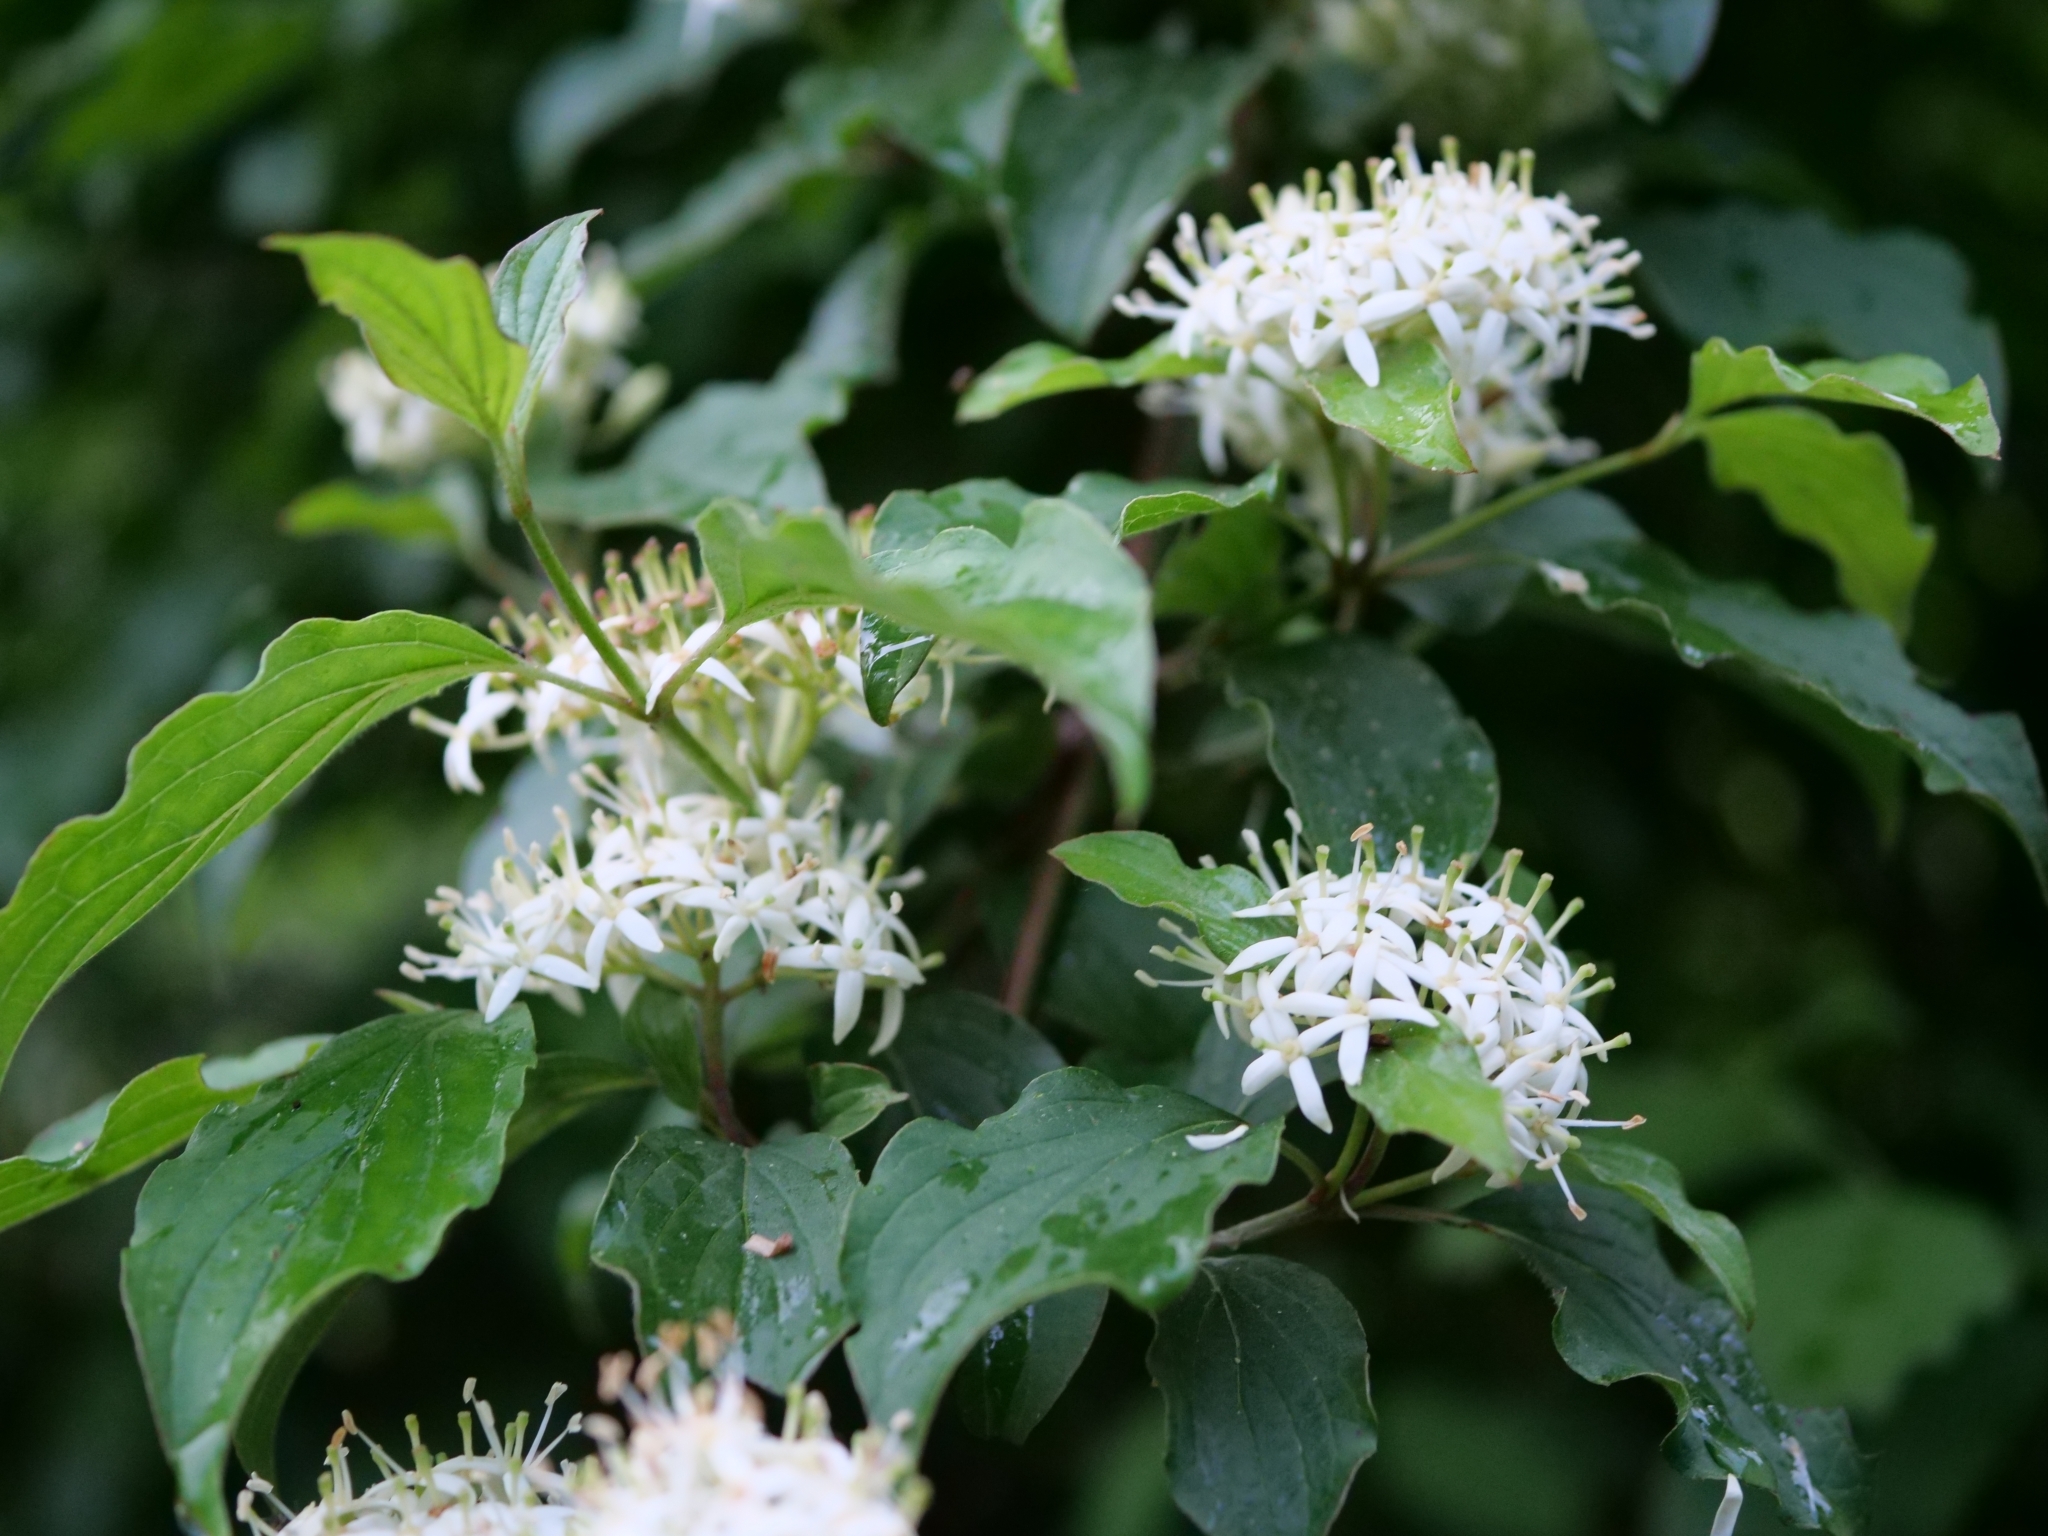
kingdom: Plantae
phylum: Tracheophyta
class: Magnoliopsida
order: Cornales
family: Cornaceae
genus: Cornus
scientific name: Cornus sanguinea
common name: Dogwood
